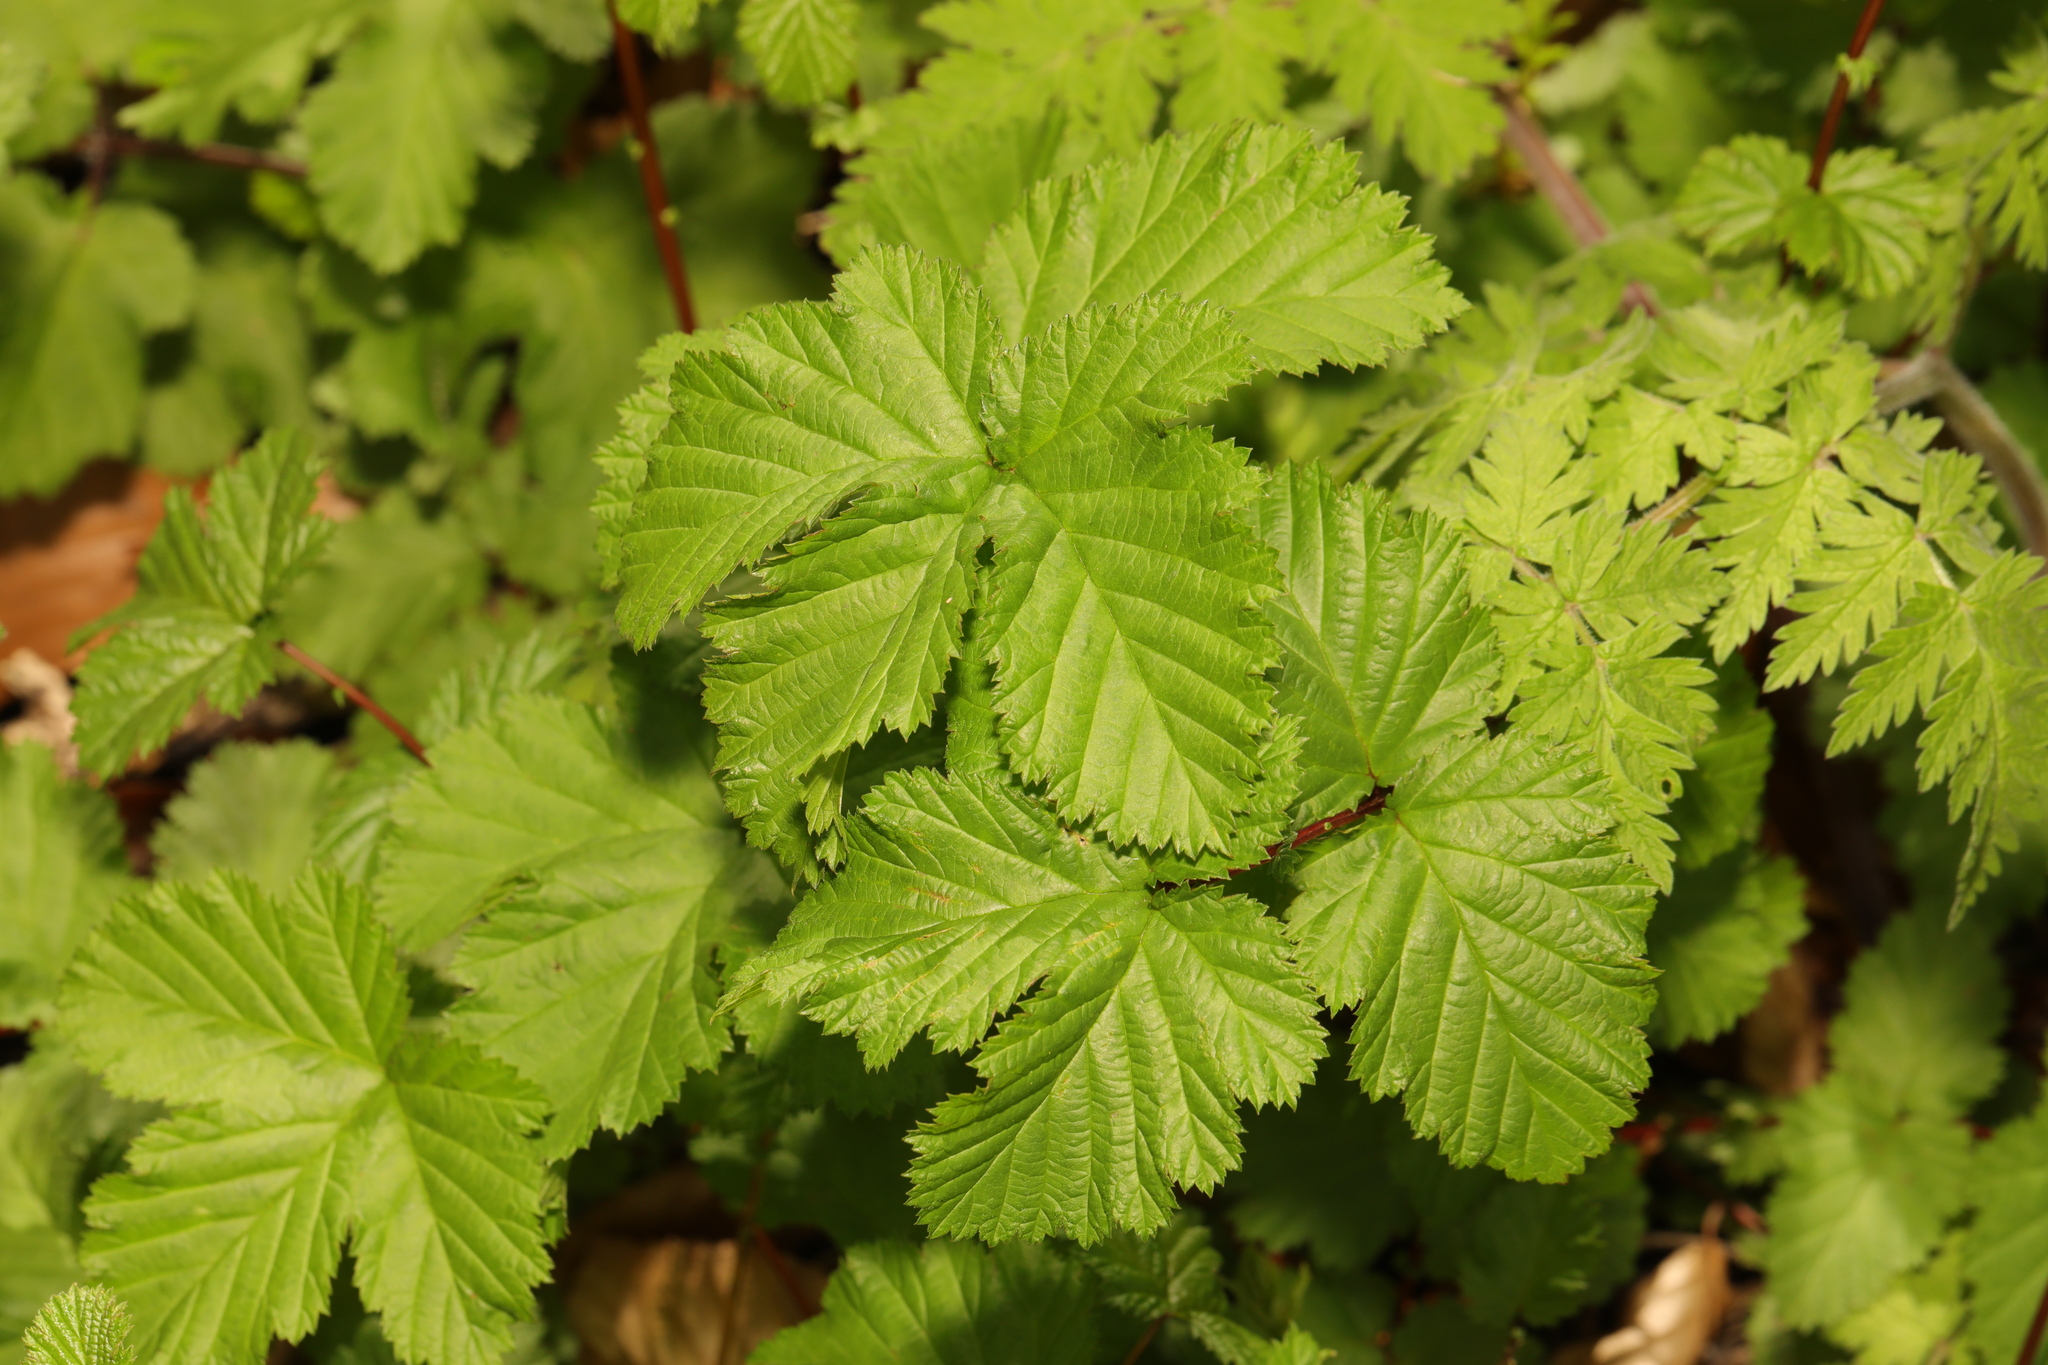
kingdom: Plantae
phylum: Tracheophyta
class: Magnoliopsida
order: Rosales
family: Rosaceae
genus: Filipendula
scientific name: Filipendula ulmaria
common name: Meadowsweet
